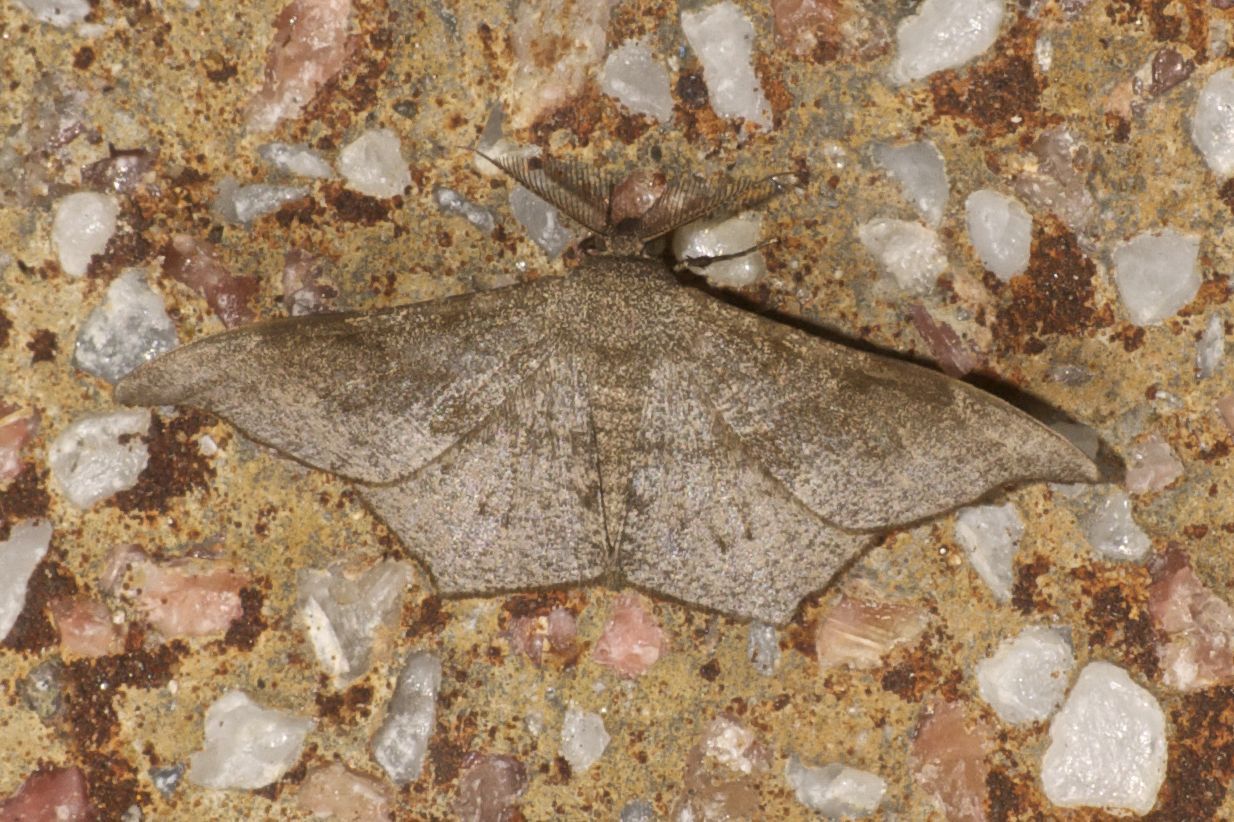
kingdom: Animalia
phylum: Arthropoda
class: Insecta
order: Lepidoptera
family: Geometridae
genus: Hyposidra
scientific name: Hyposidra talaca
